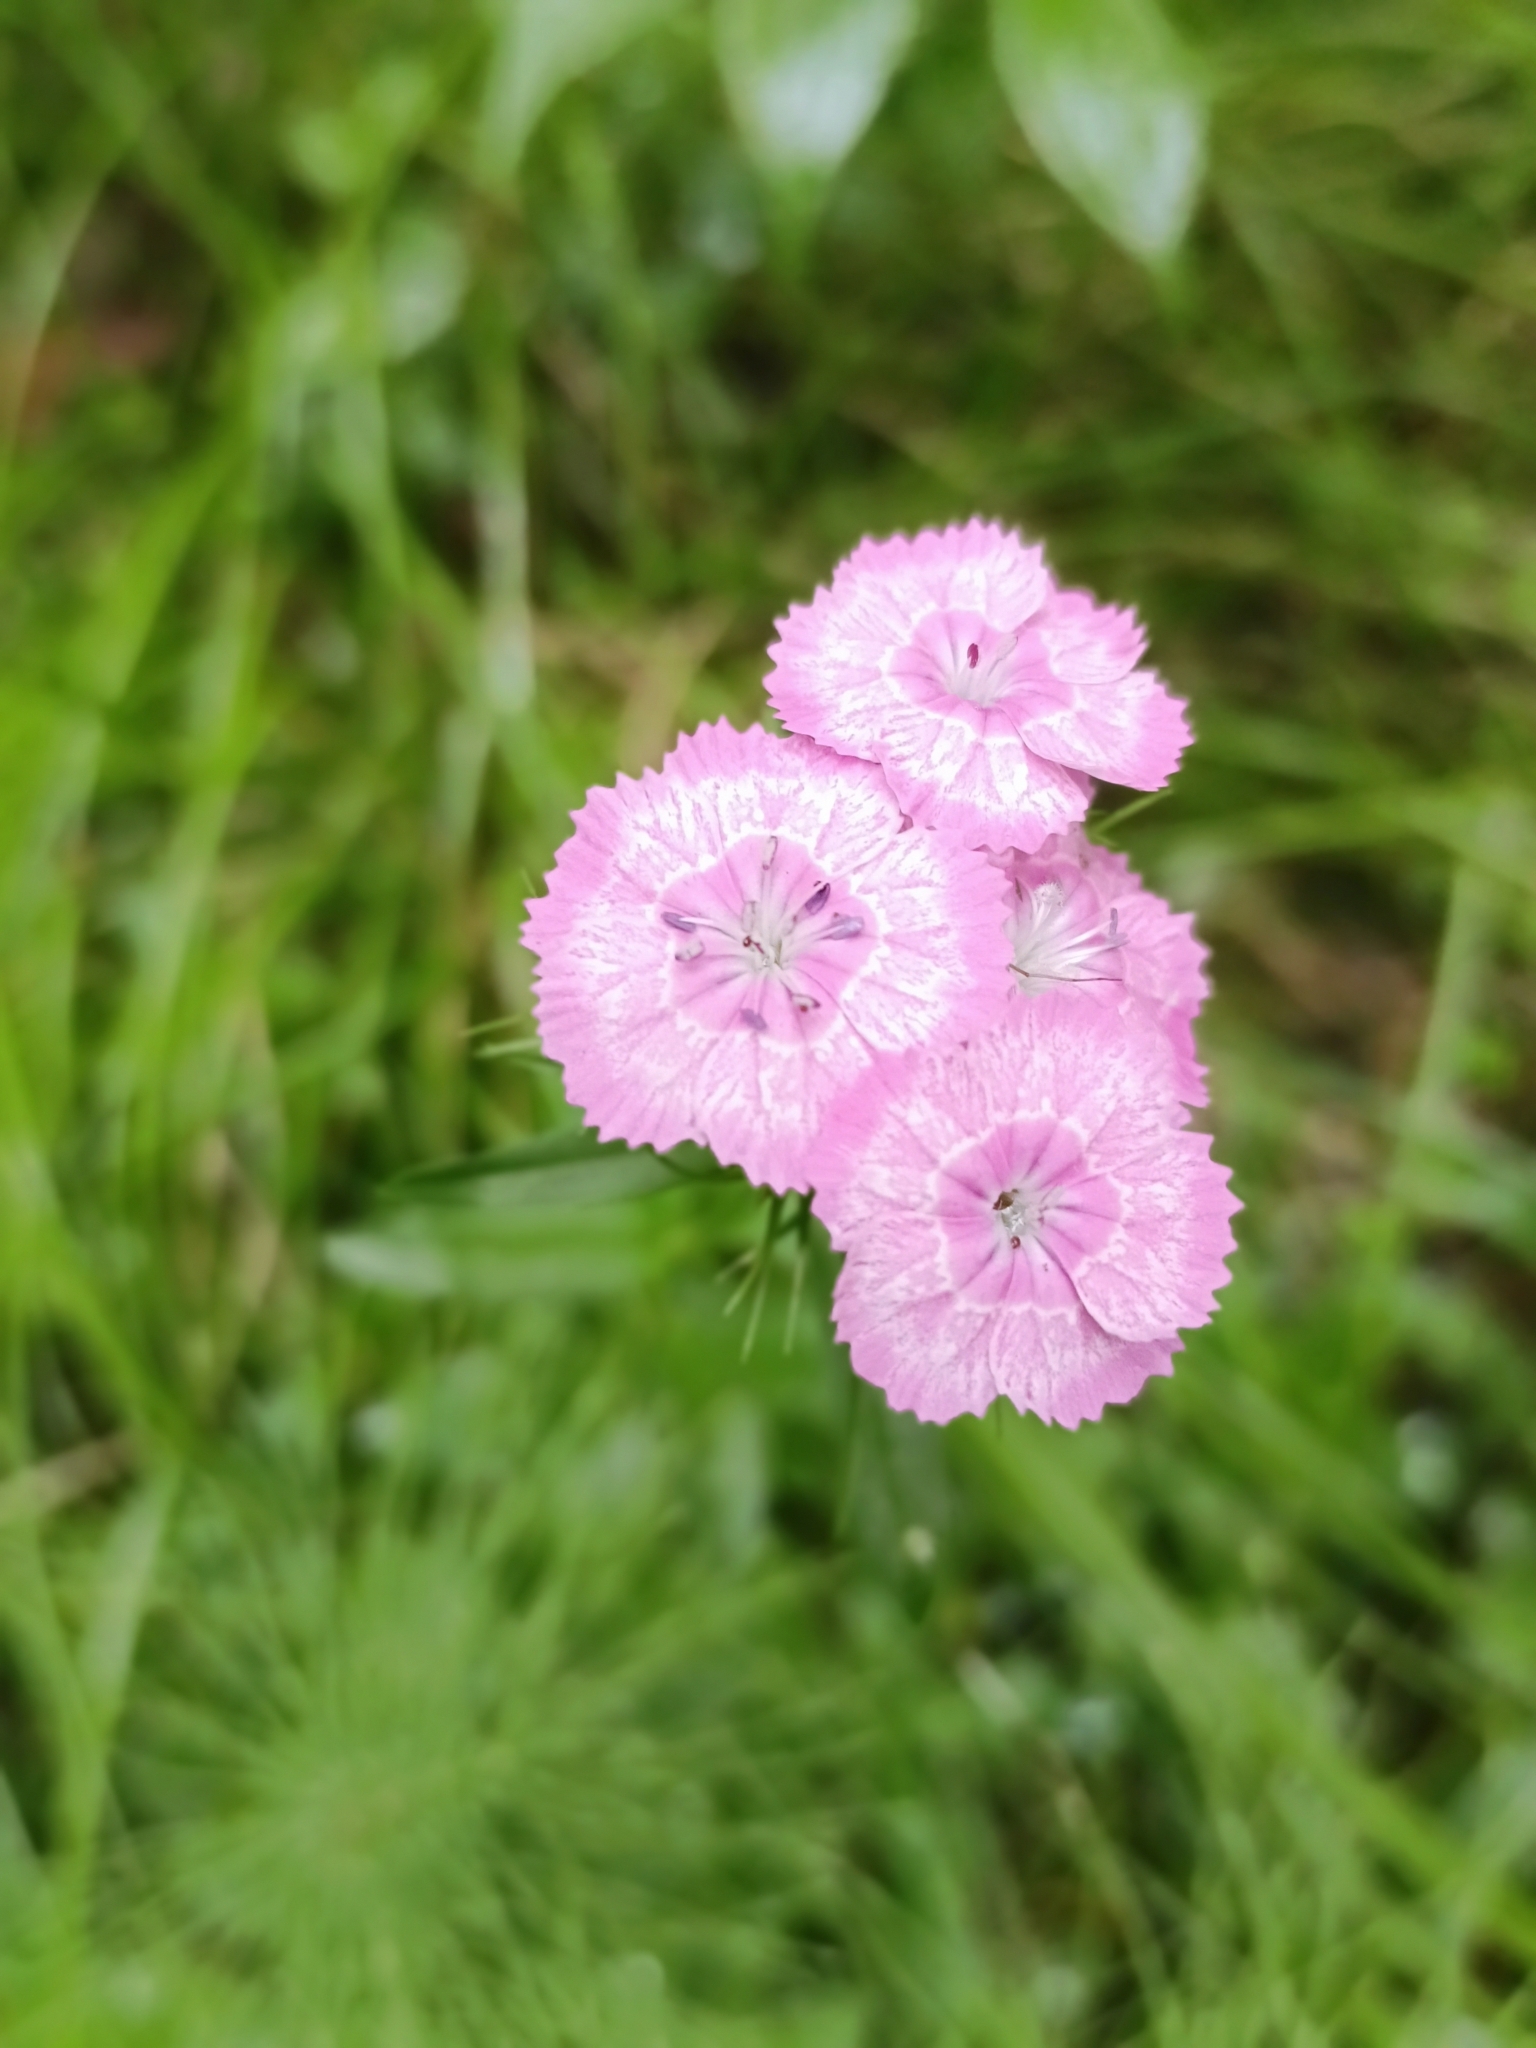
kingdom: Plantae
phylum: Tracheophyta
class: Magnoliopsida
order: Caryophyllales
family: Caryophyllaceae
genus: Dianthus
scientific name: Dianthus barbatus
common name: Sweet-william
